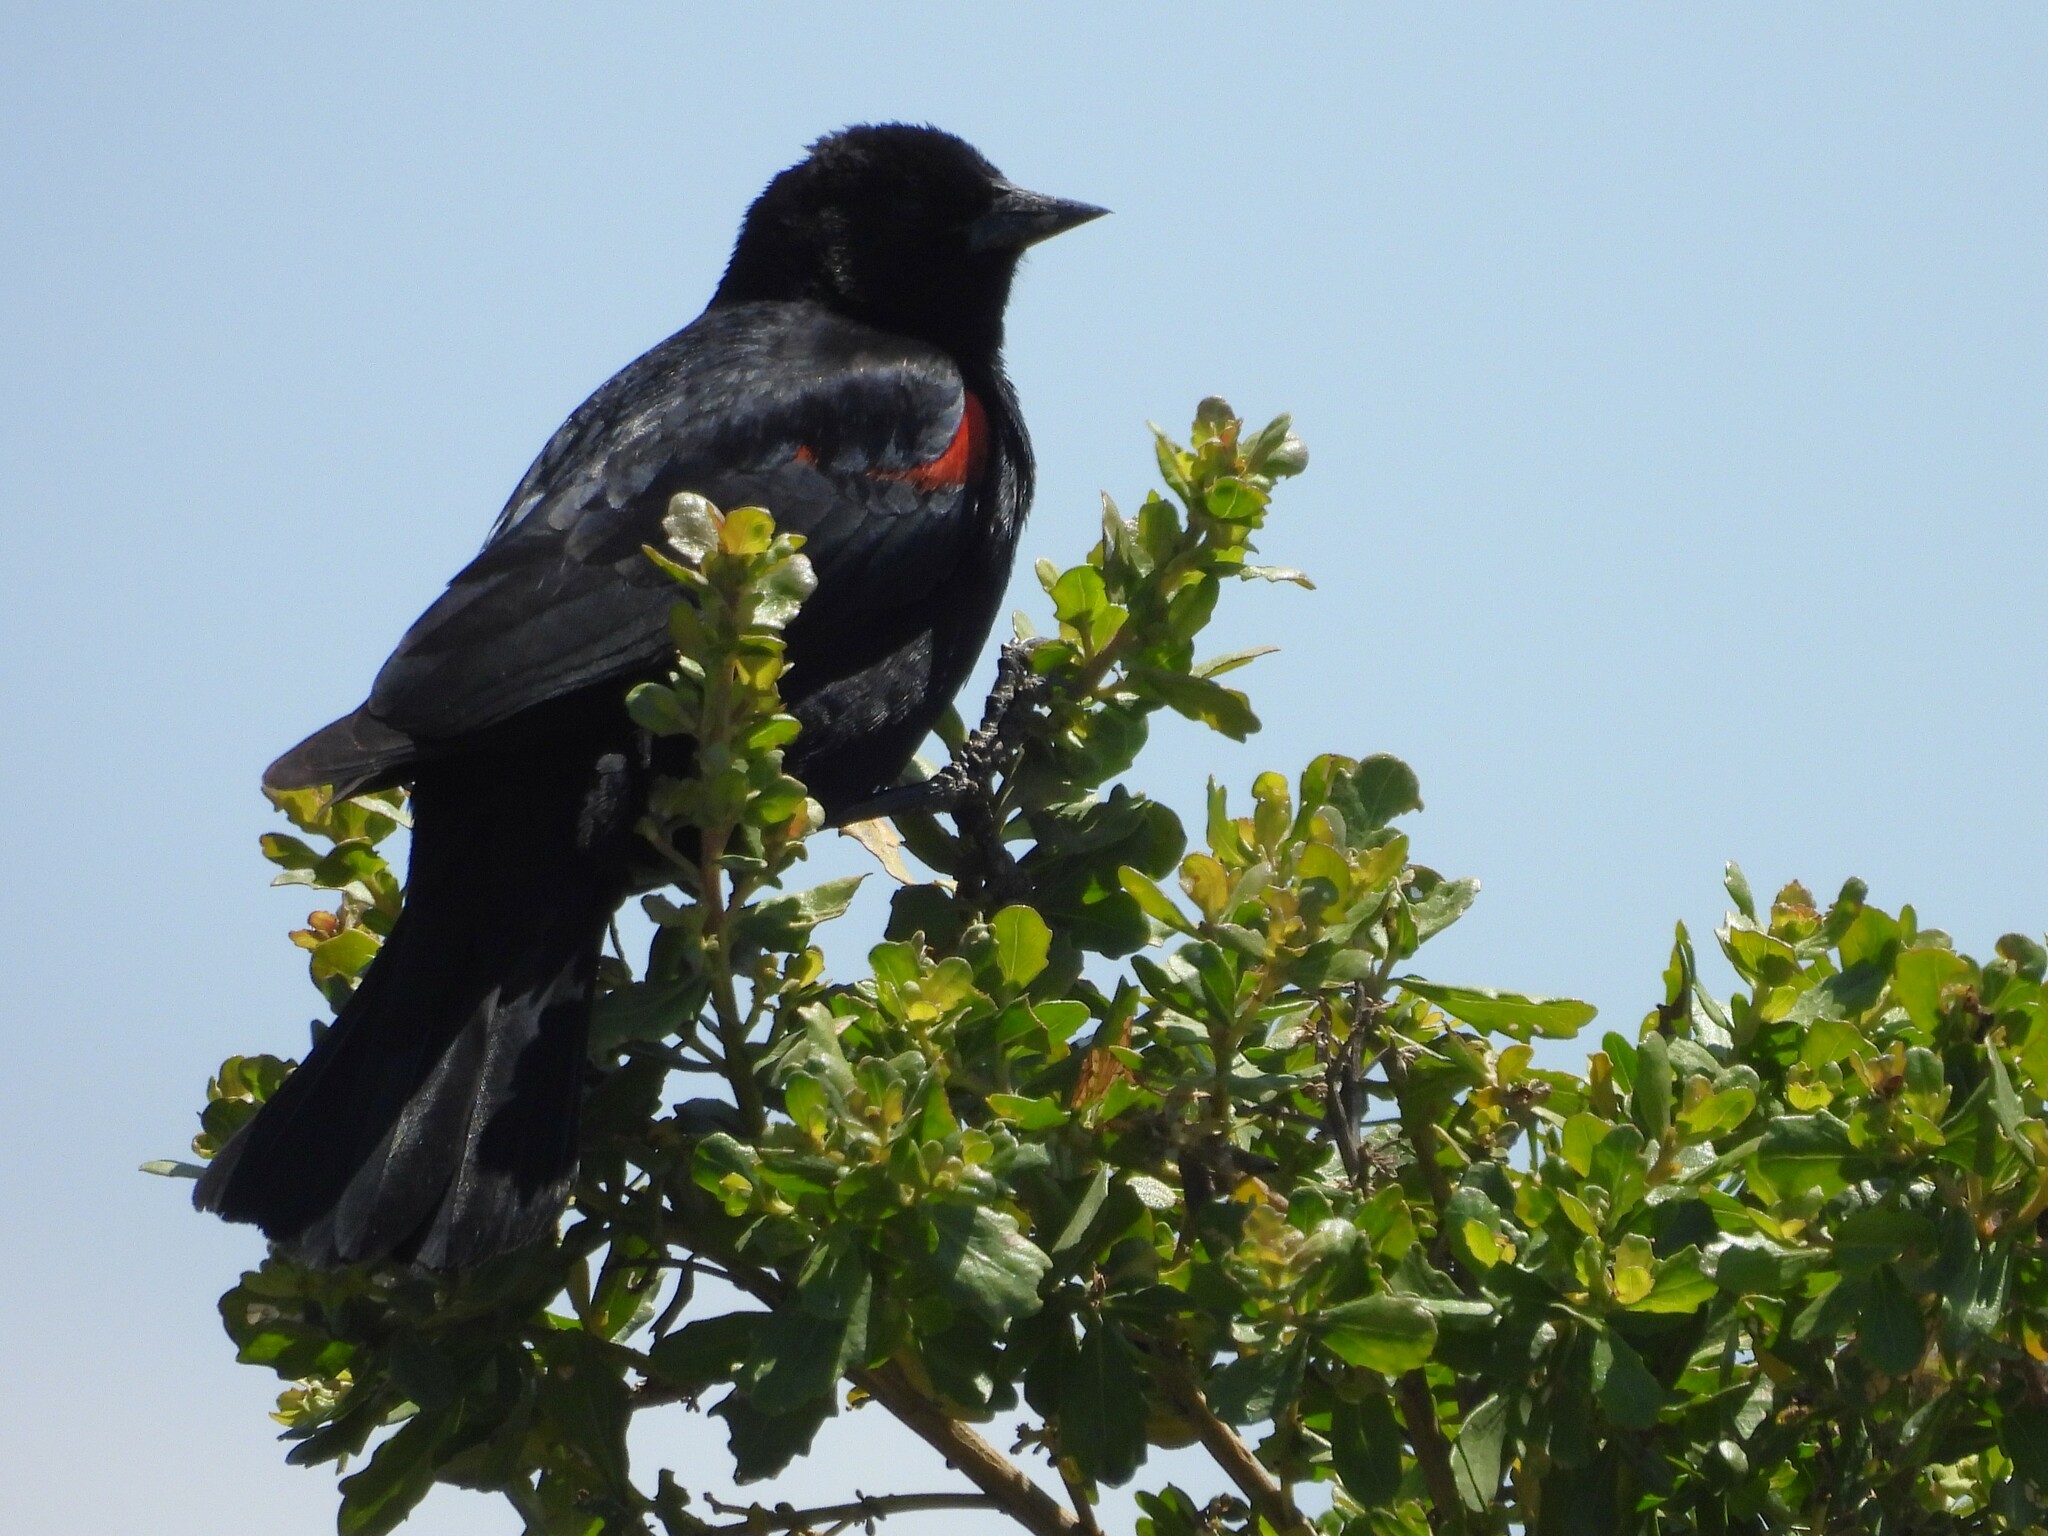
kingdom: Animalia
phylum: Chordata
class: Aves
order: Passeriformes
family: Icteridae
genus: Agelaius
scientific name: Agelaius phoeniceus
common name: Red-winged blackbird
